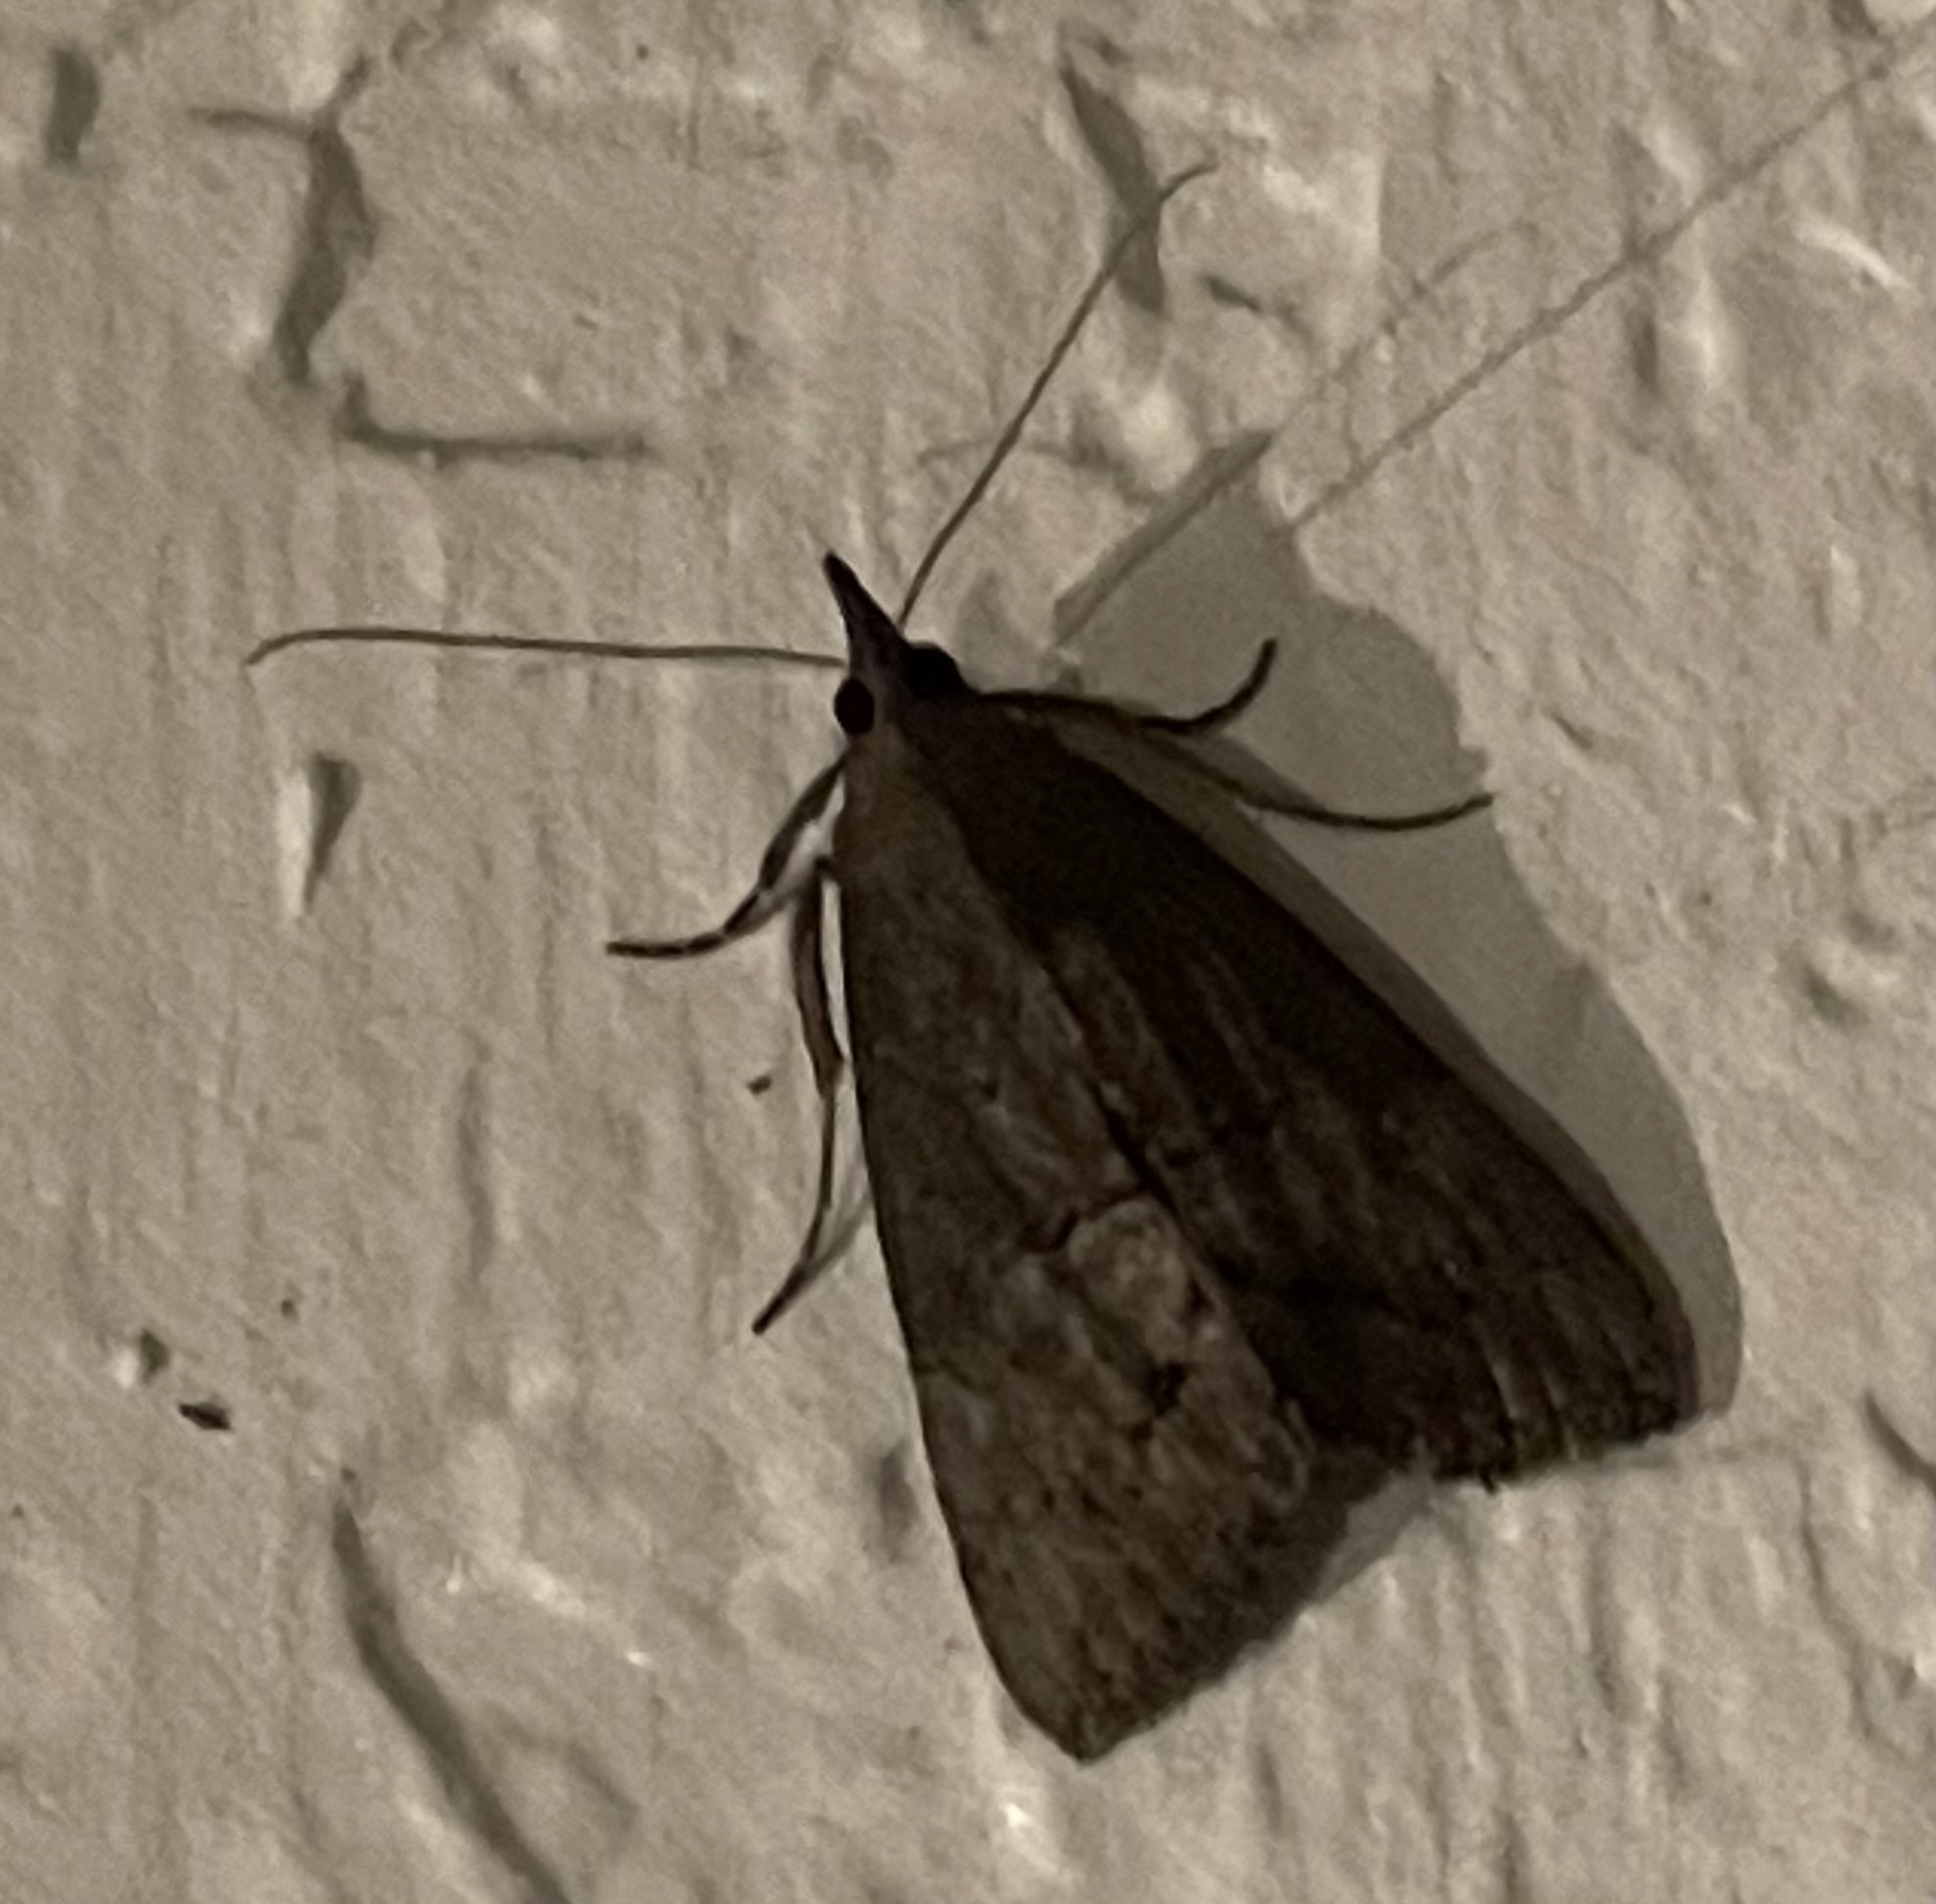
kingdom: Animalia
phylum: Arthropoda
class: Insecta
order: Lepidoptera
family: Erebidae
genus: Hypena
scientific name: Hypena scabra
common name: Green cloverworm
